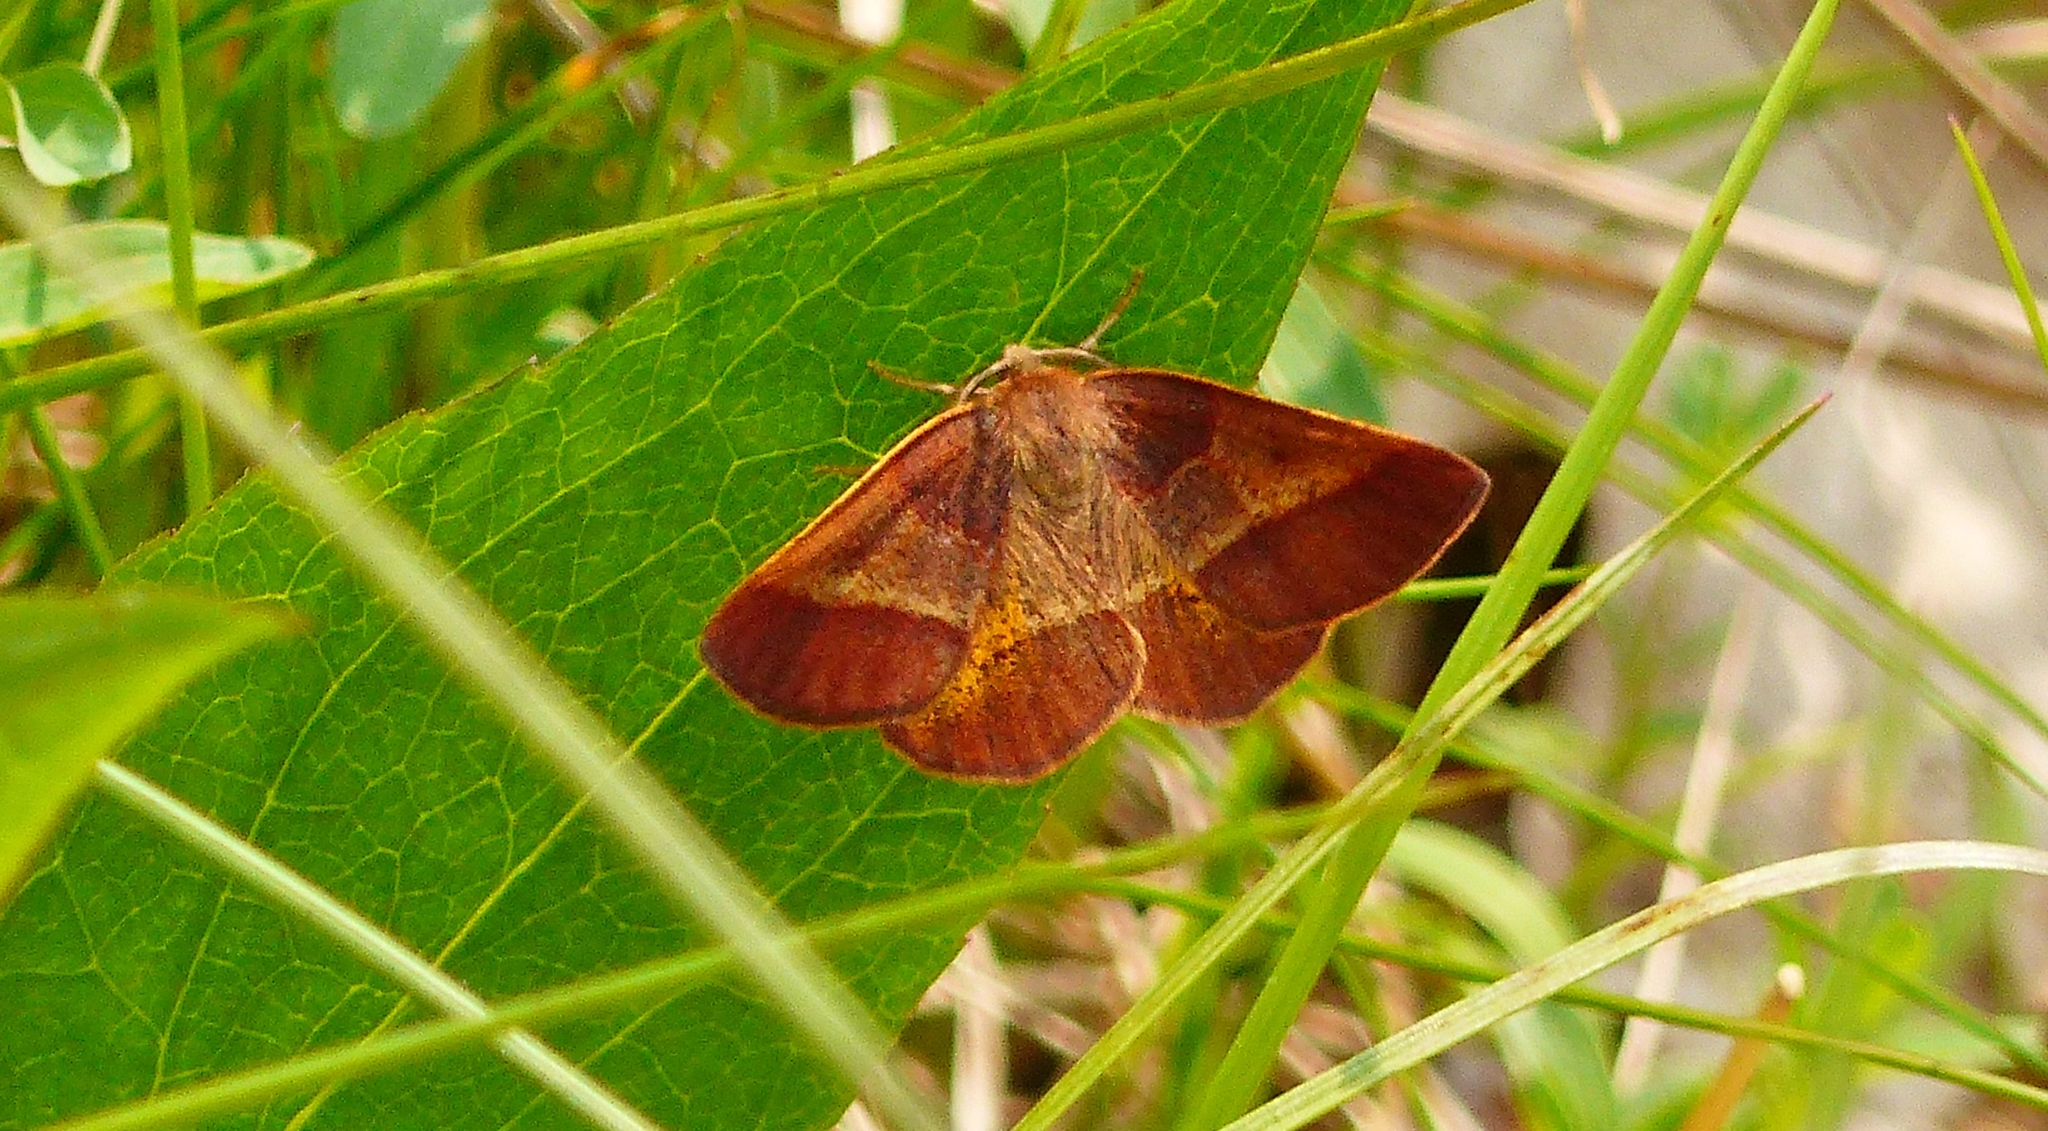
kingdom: Animalia
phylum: Arthropoda
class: Insecta
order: Lepidoptera
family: Geometridae
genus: Metarranthis
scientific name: Metarranthis obfirmaria
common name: Yellow-washed metarranthis
